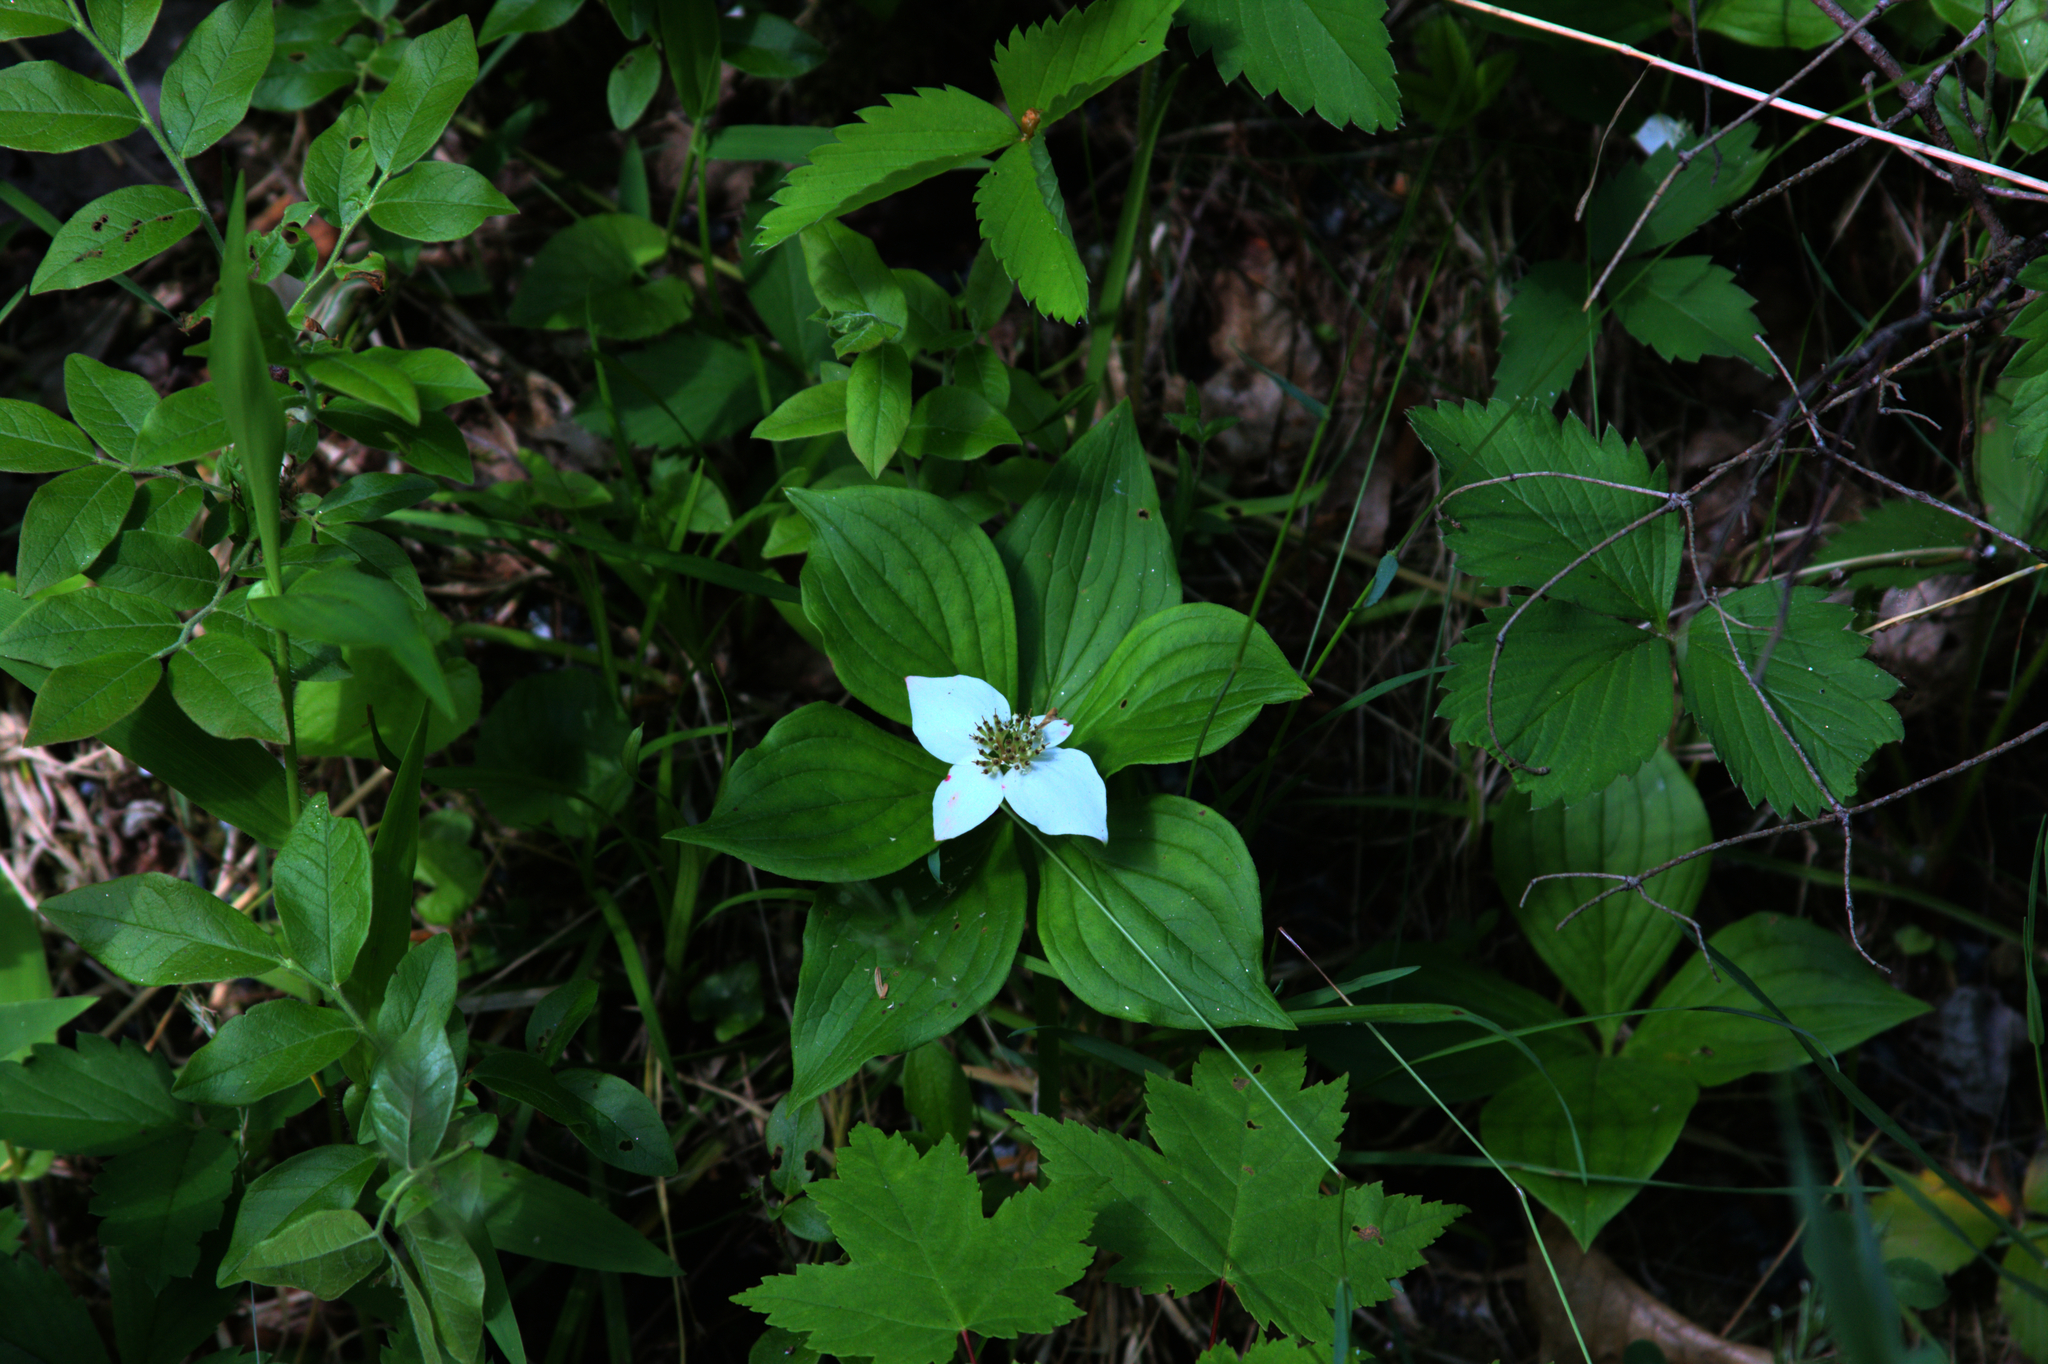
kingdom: Plantae
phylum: Tracheophyta
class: Magnoliopsida
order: Cornales
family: Cornaceae
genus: Cornus
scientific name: Cornus canadensis
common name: Creeping dogwood
